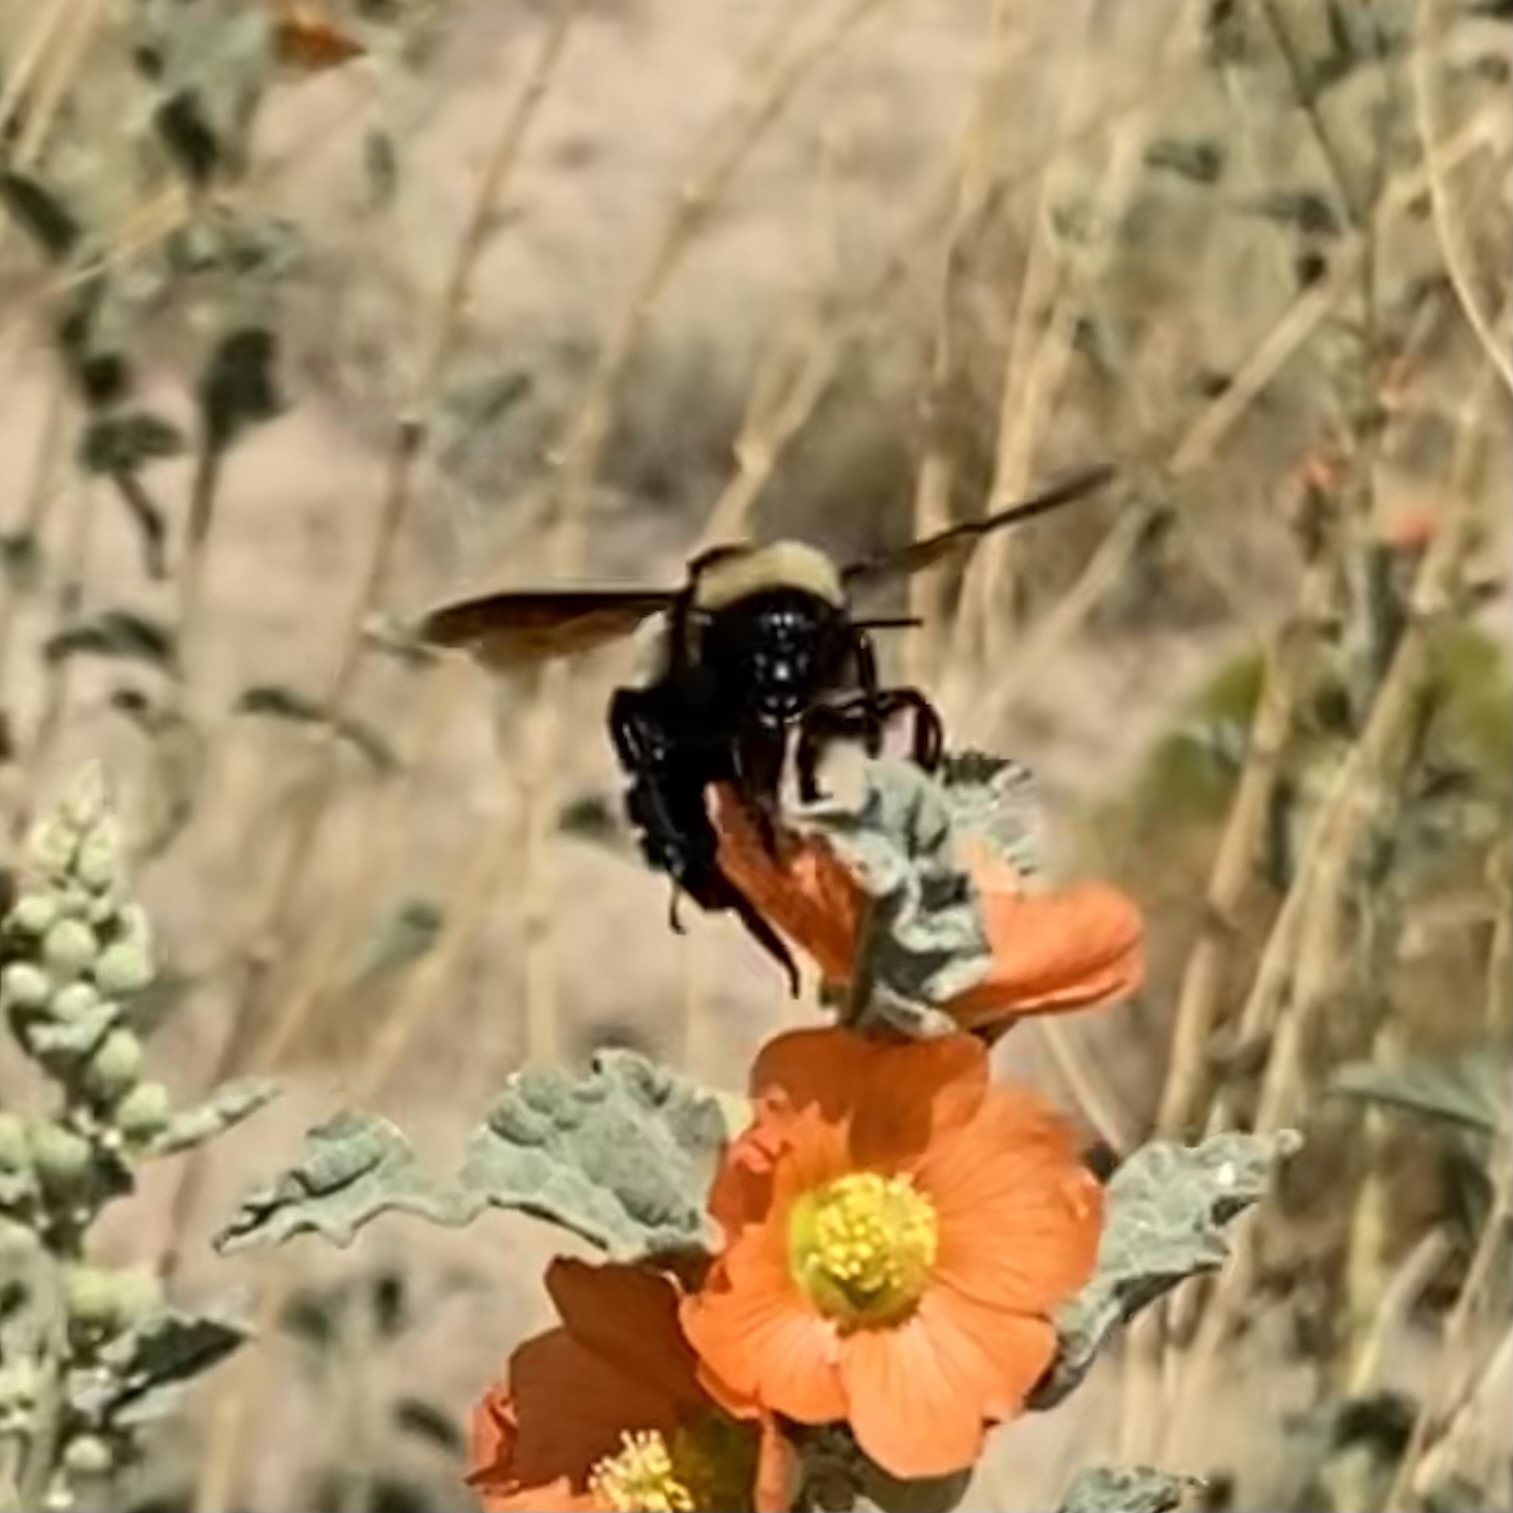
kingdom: Animalia
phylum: Arthropoda
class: Insecta
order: Hymenoptera
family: Apidae
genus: Bombus
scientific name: Bombus pensylvanicus
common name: Bumble bee
